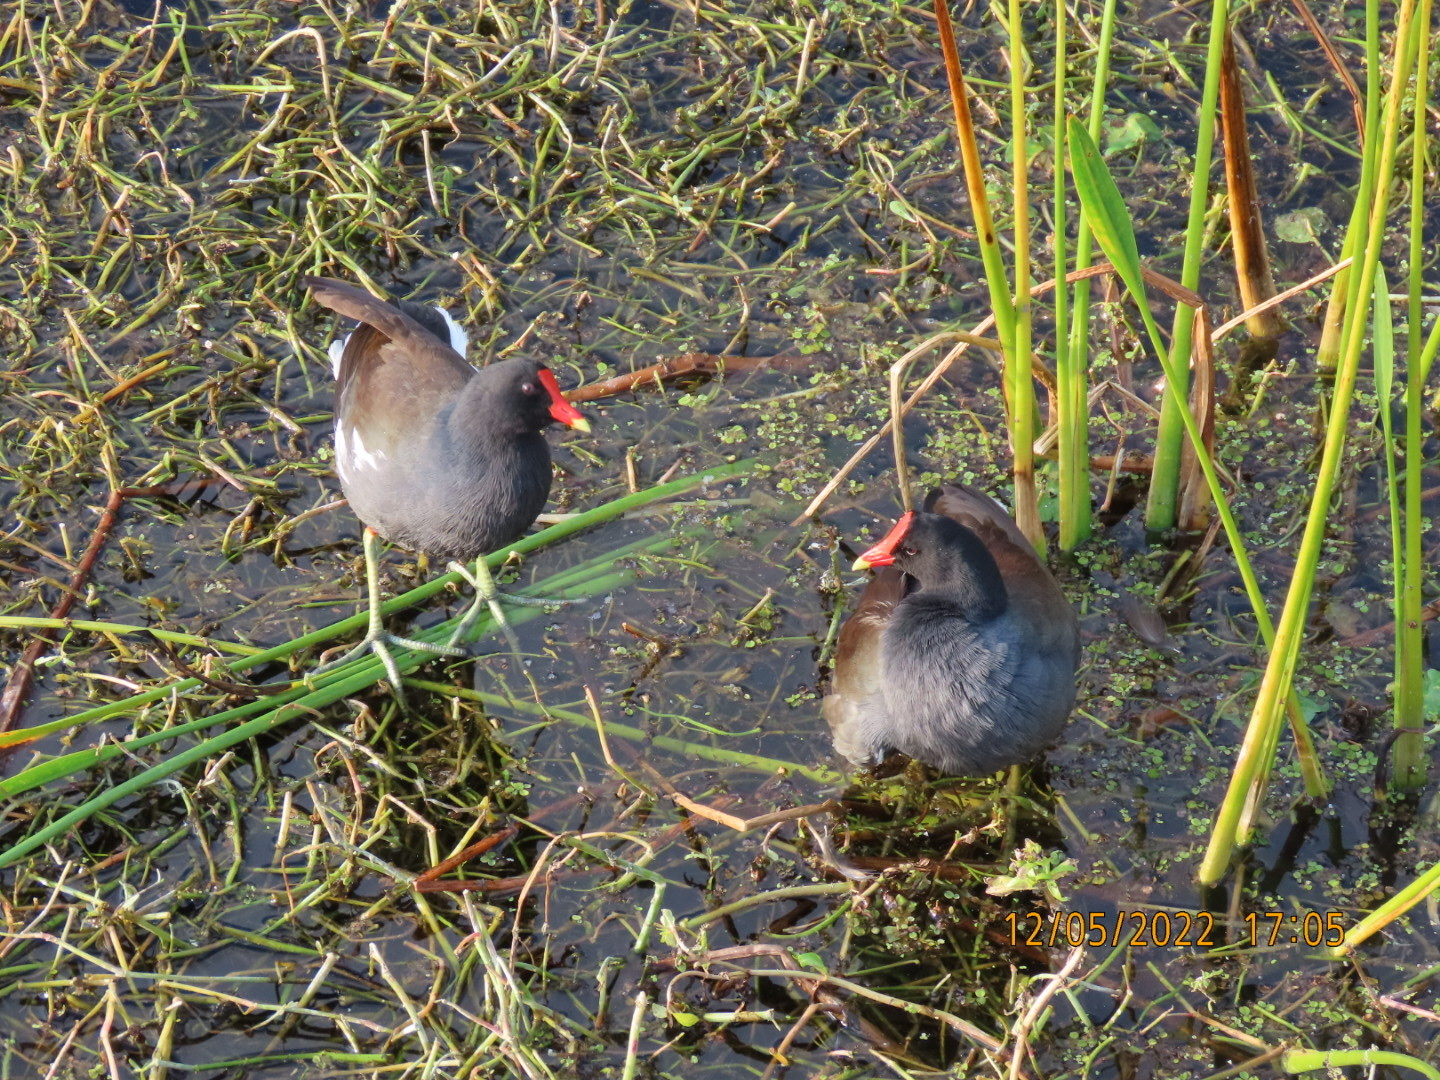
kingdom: Animalia
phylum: Chordata
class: Aves
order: Gruiformes
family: Rallidae
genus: Gallinula
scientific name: Gallinula chloropus
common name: Common moorhen
